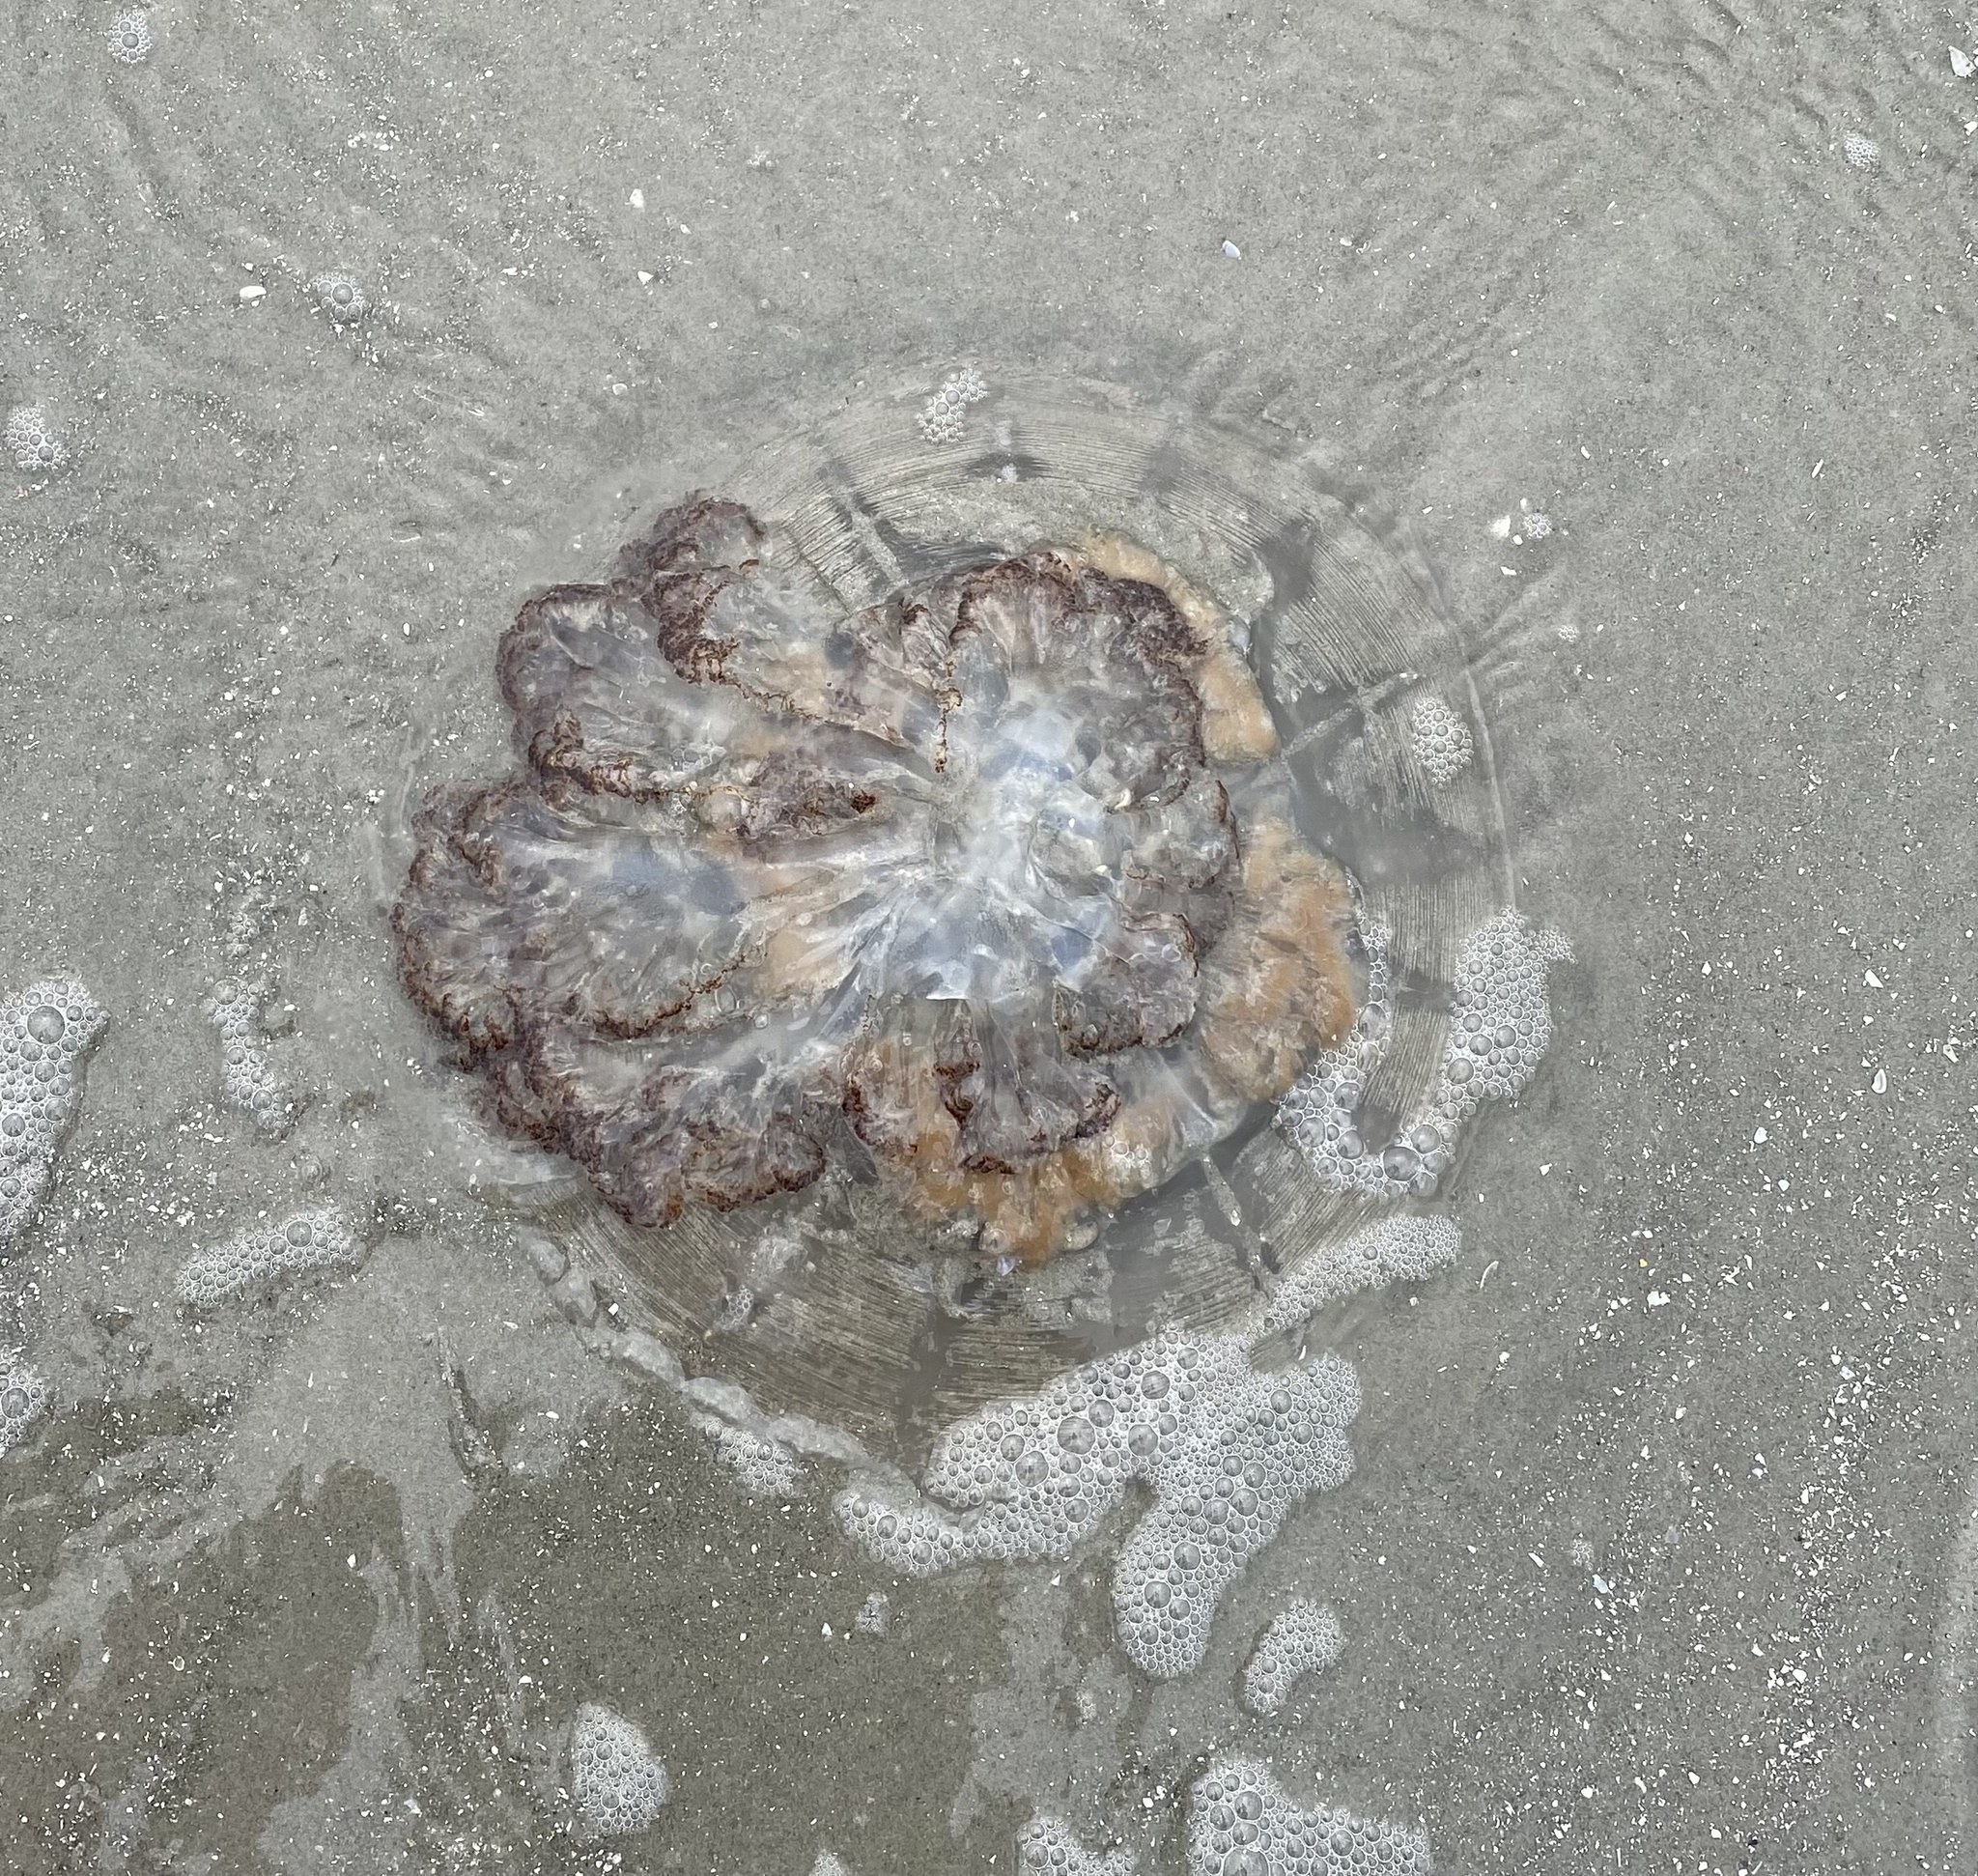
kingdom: Animalia
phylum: Cnidaria
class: Scyphozoa
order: Rhizostomeae
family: Rhizostomatidae
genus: Rhopilema
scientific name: Rhopilema verrilli
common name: Mushroom cap jellyfish
